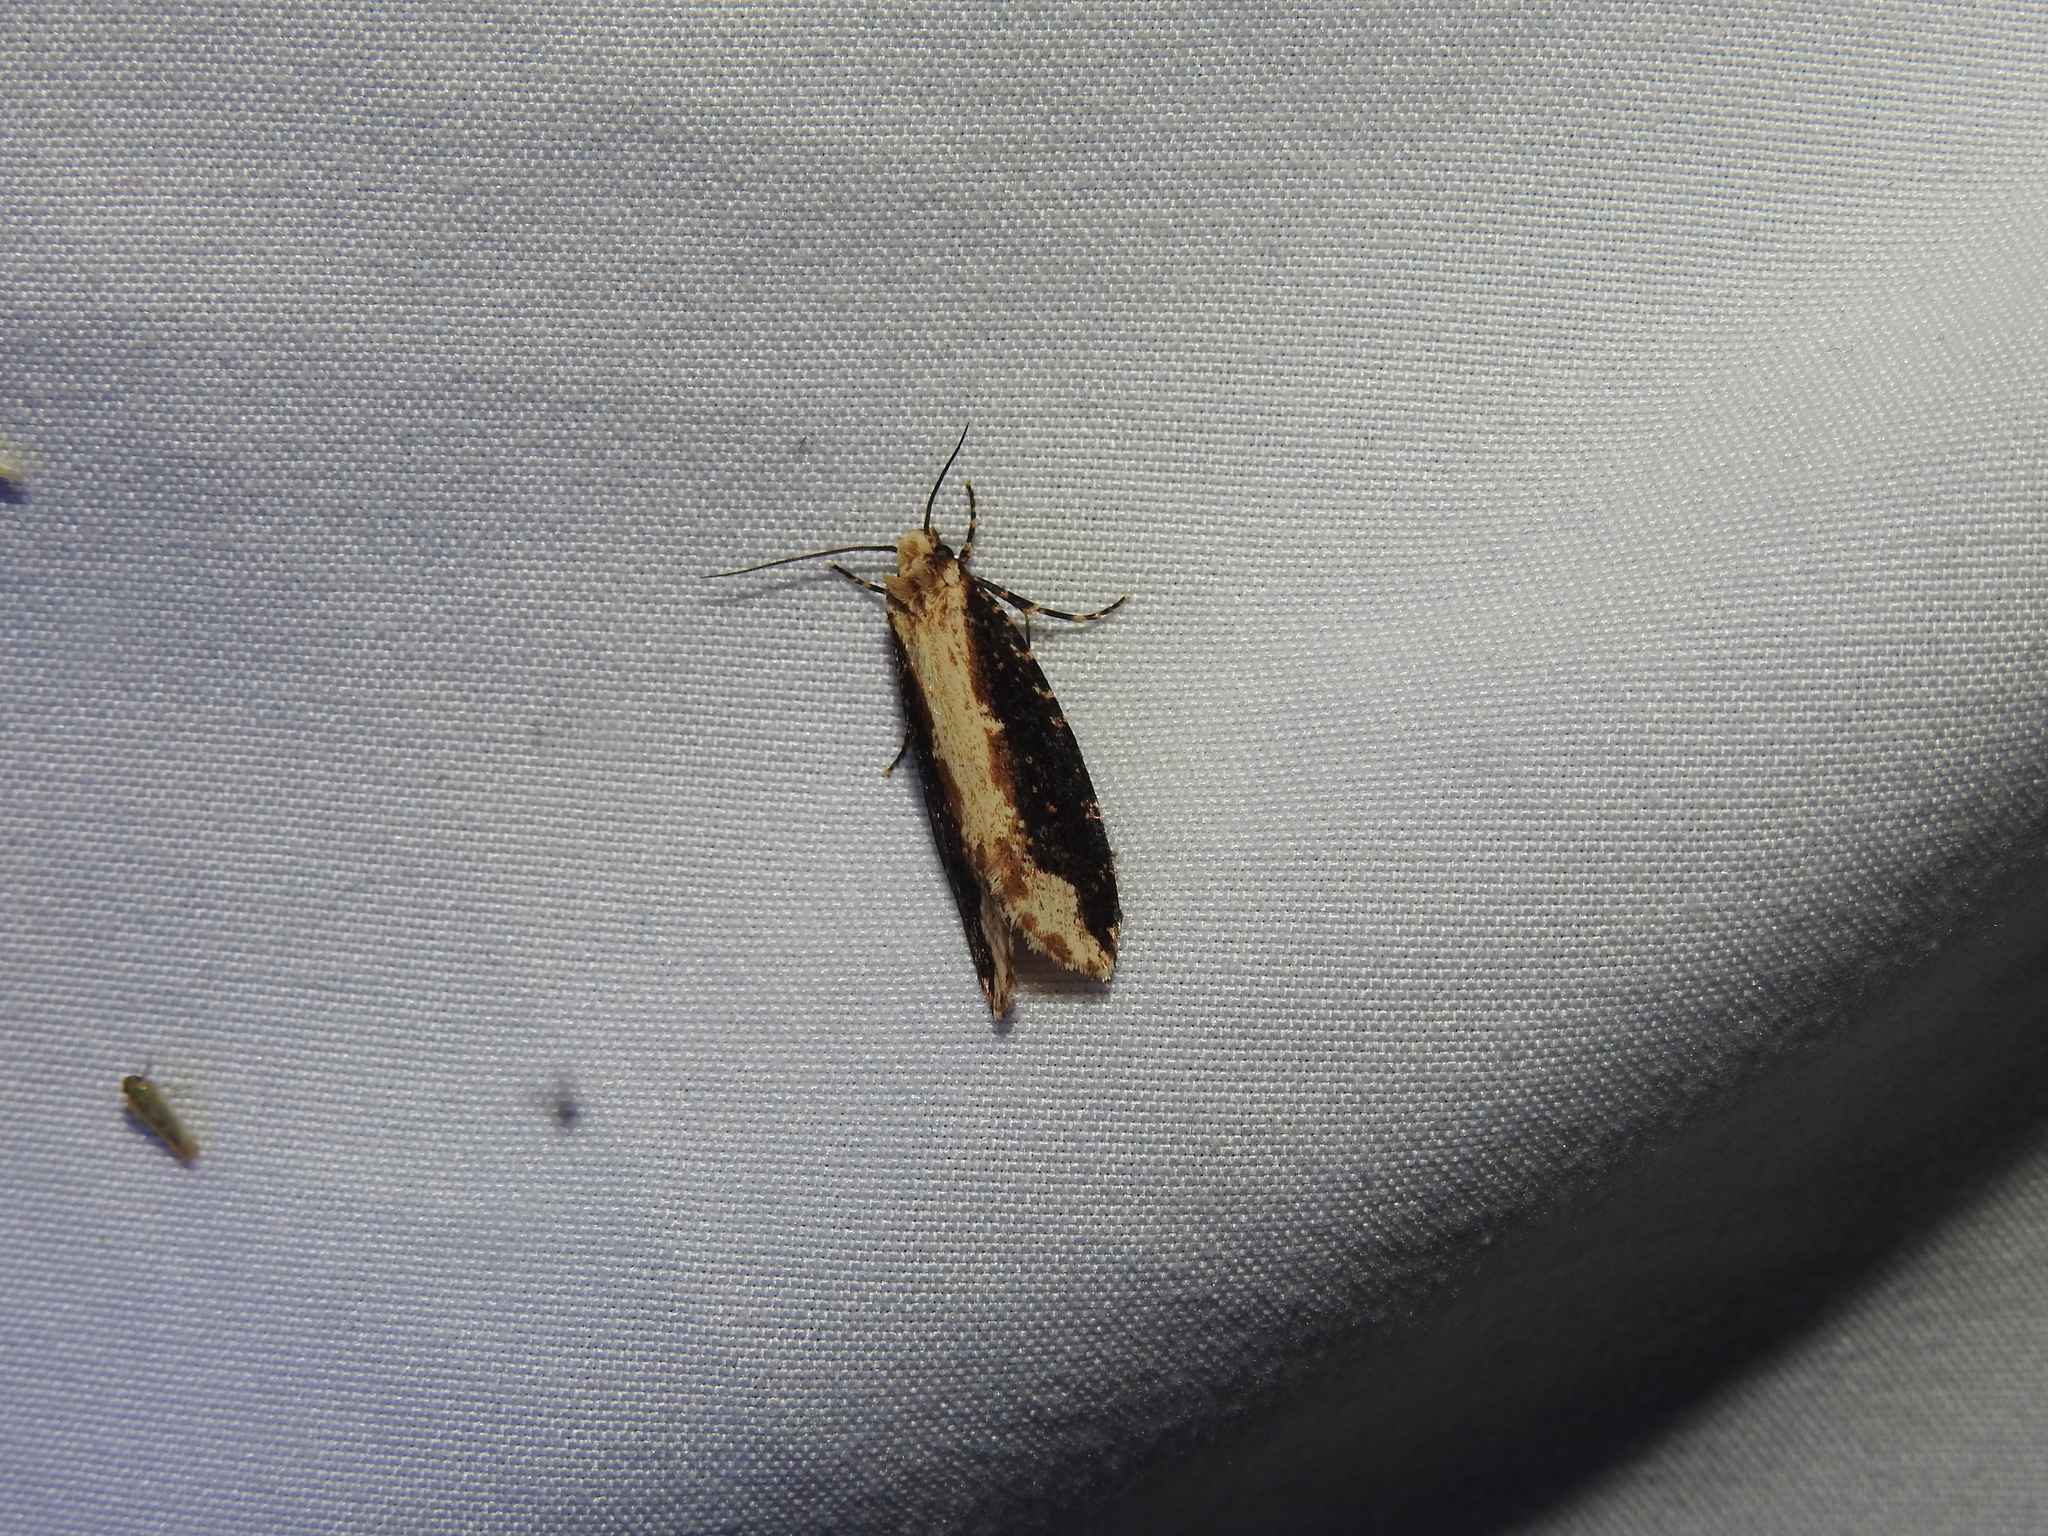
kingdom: Animalia
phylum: Arthropoda
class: Insecta
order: Lepidoptera
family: Tineidae
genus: Scardia
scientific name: Scardia amurensis
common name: Tineid moth
